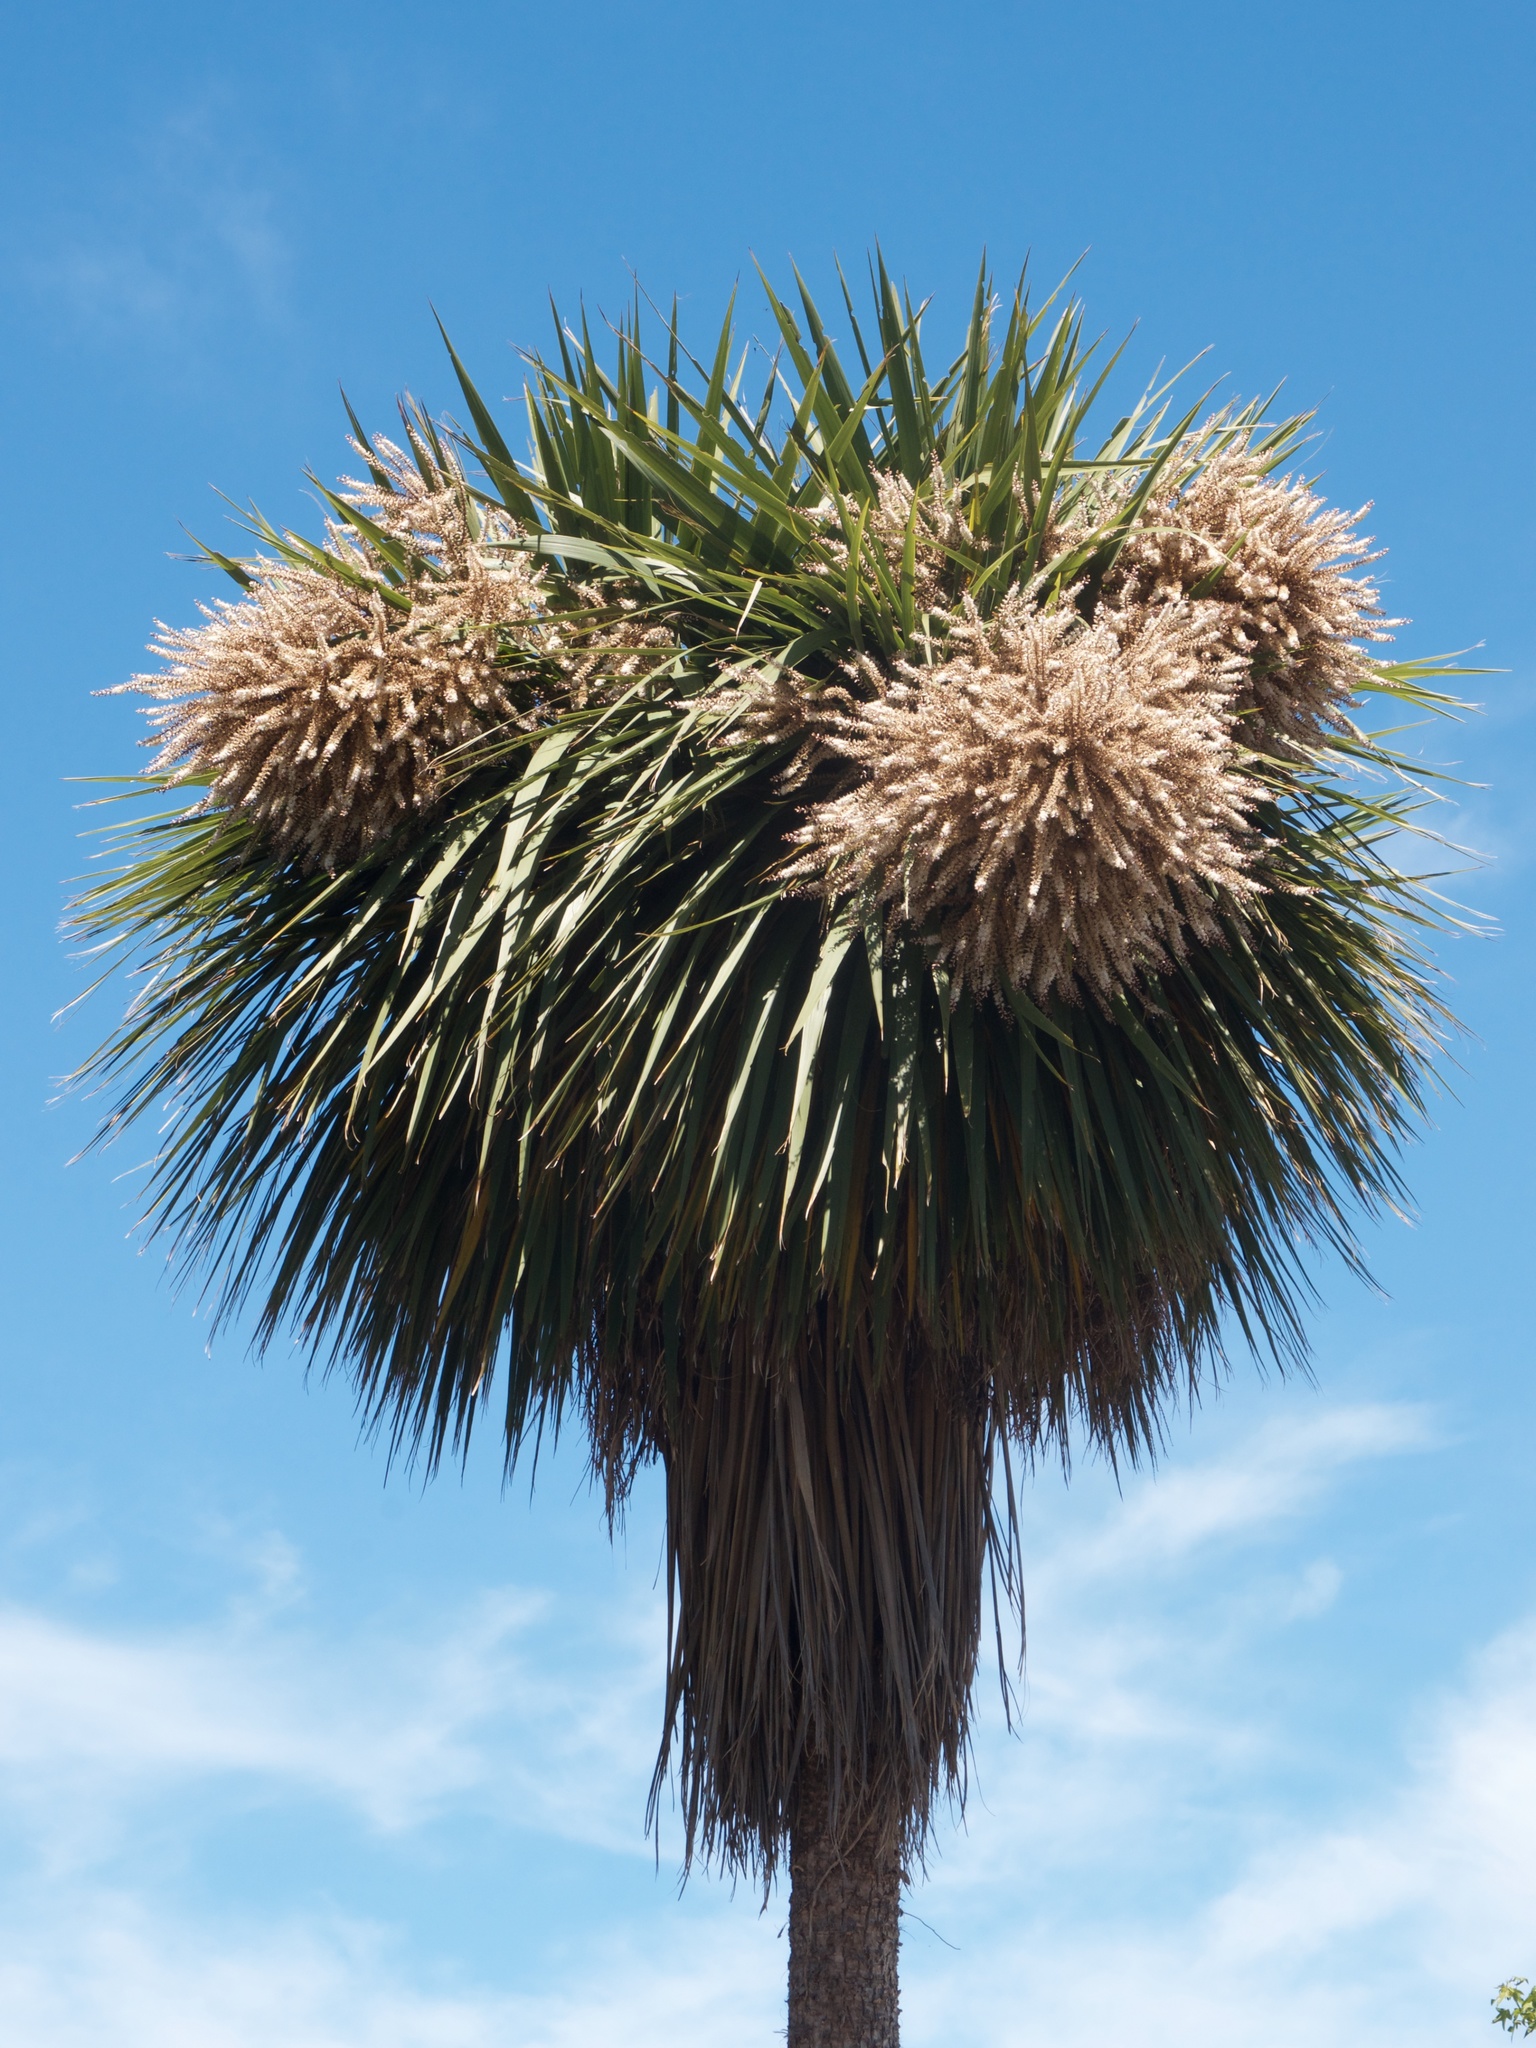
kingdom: Plantae
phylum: Tracheophyta
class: Liliopsida
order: Asparagales
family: Asparagaceae
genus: Cordyline
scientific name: Cordyline australis
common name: Cabbage-palm
